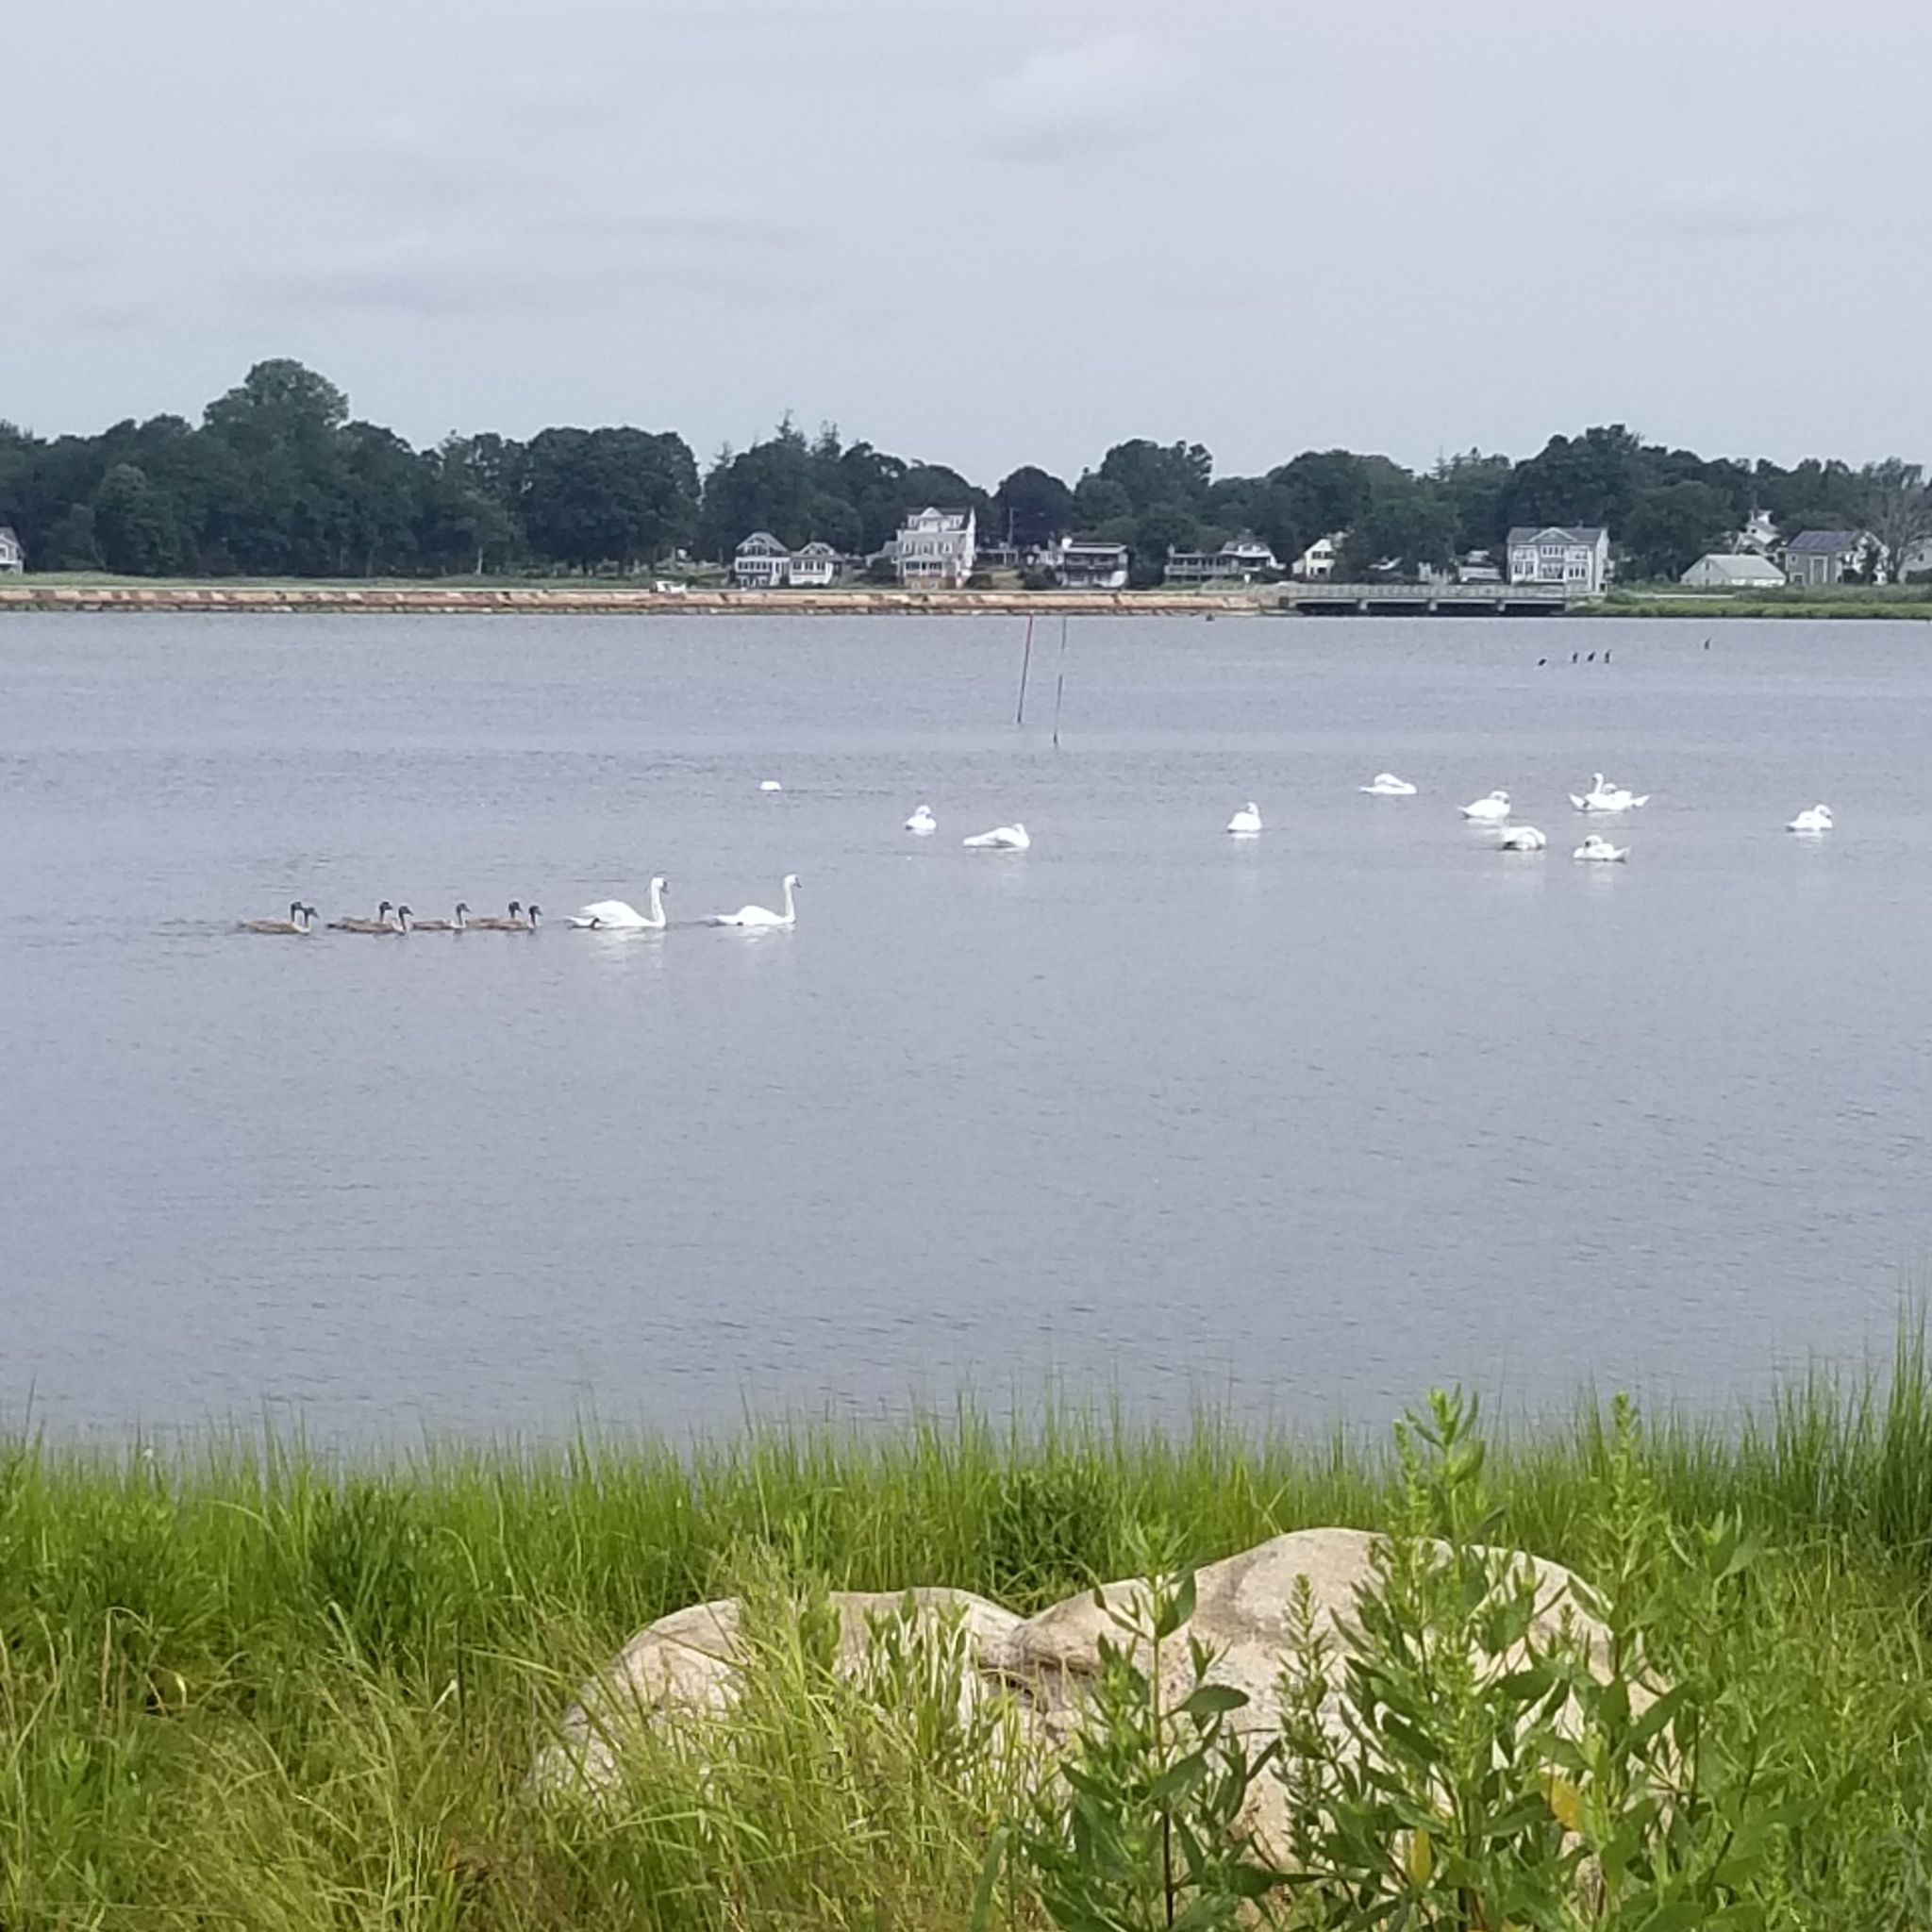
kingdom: Animalia
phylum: Chordata
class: Aves
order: Anseriformes
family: Anatidae
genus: Cygnus
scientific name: Cygnus olor
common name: Mute swan
